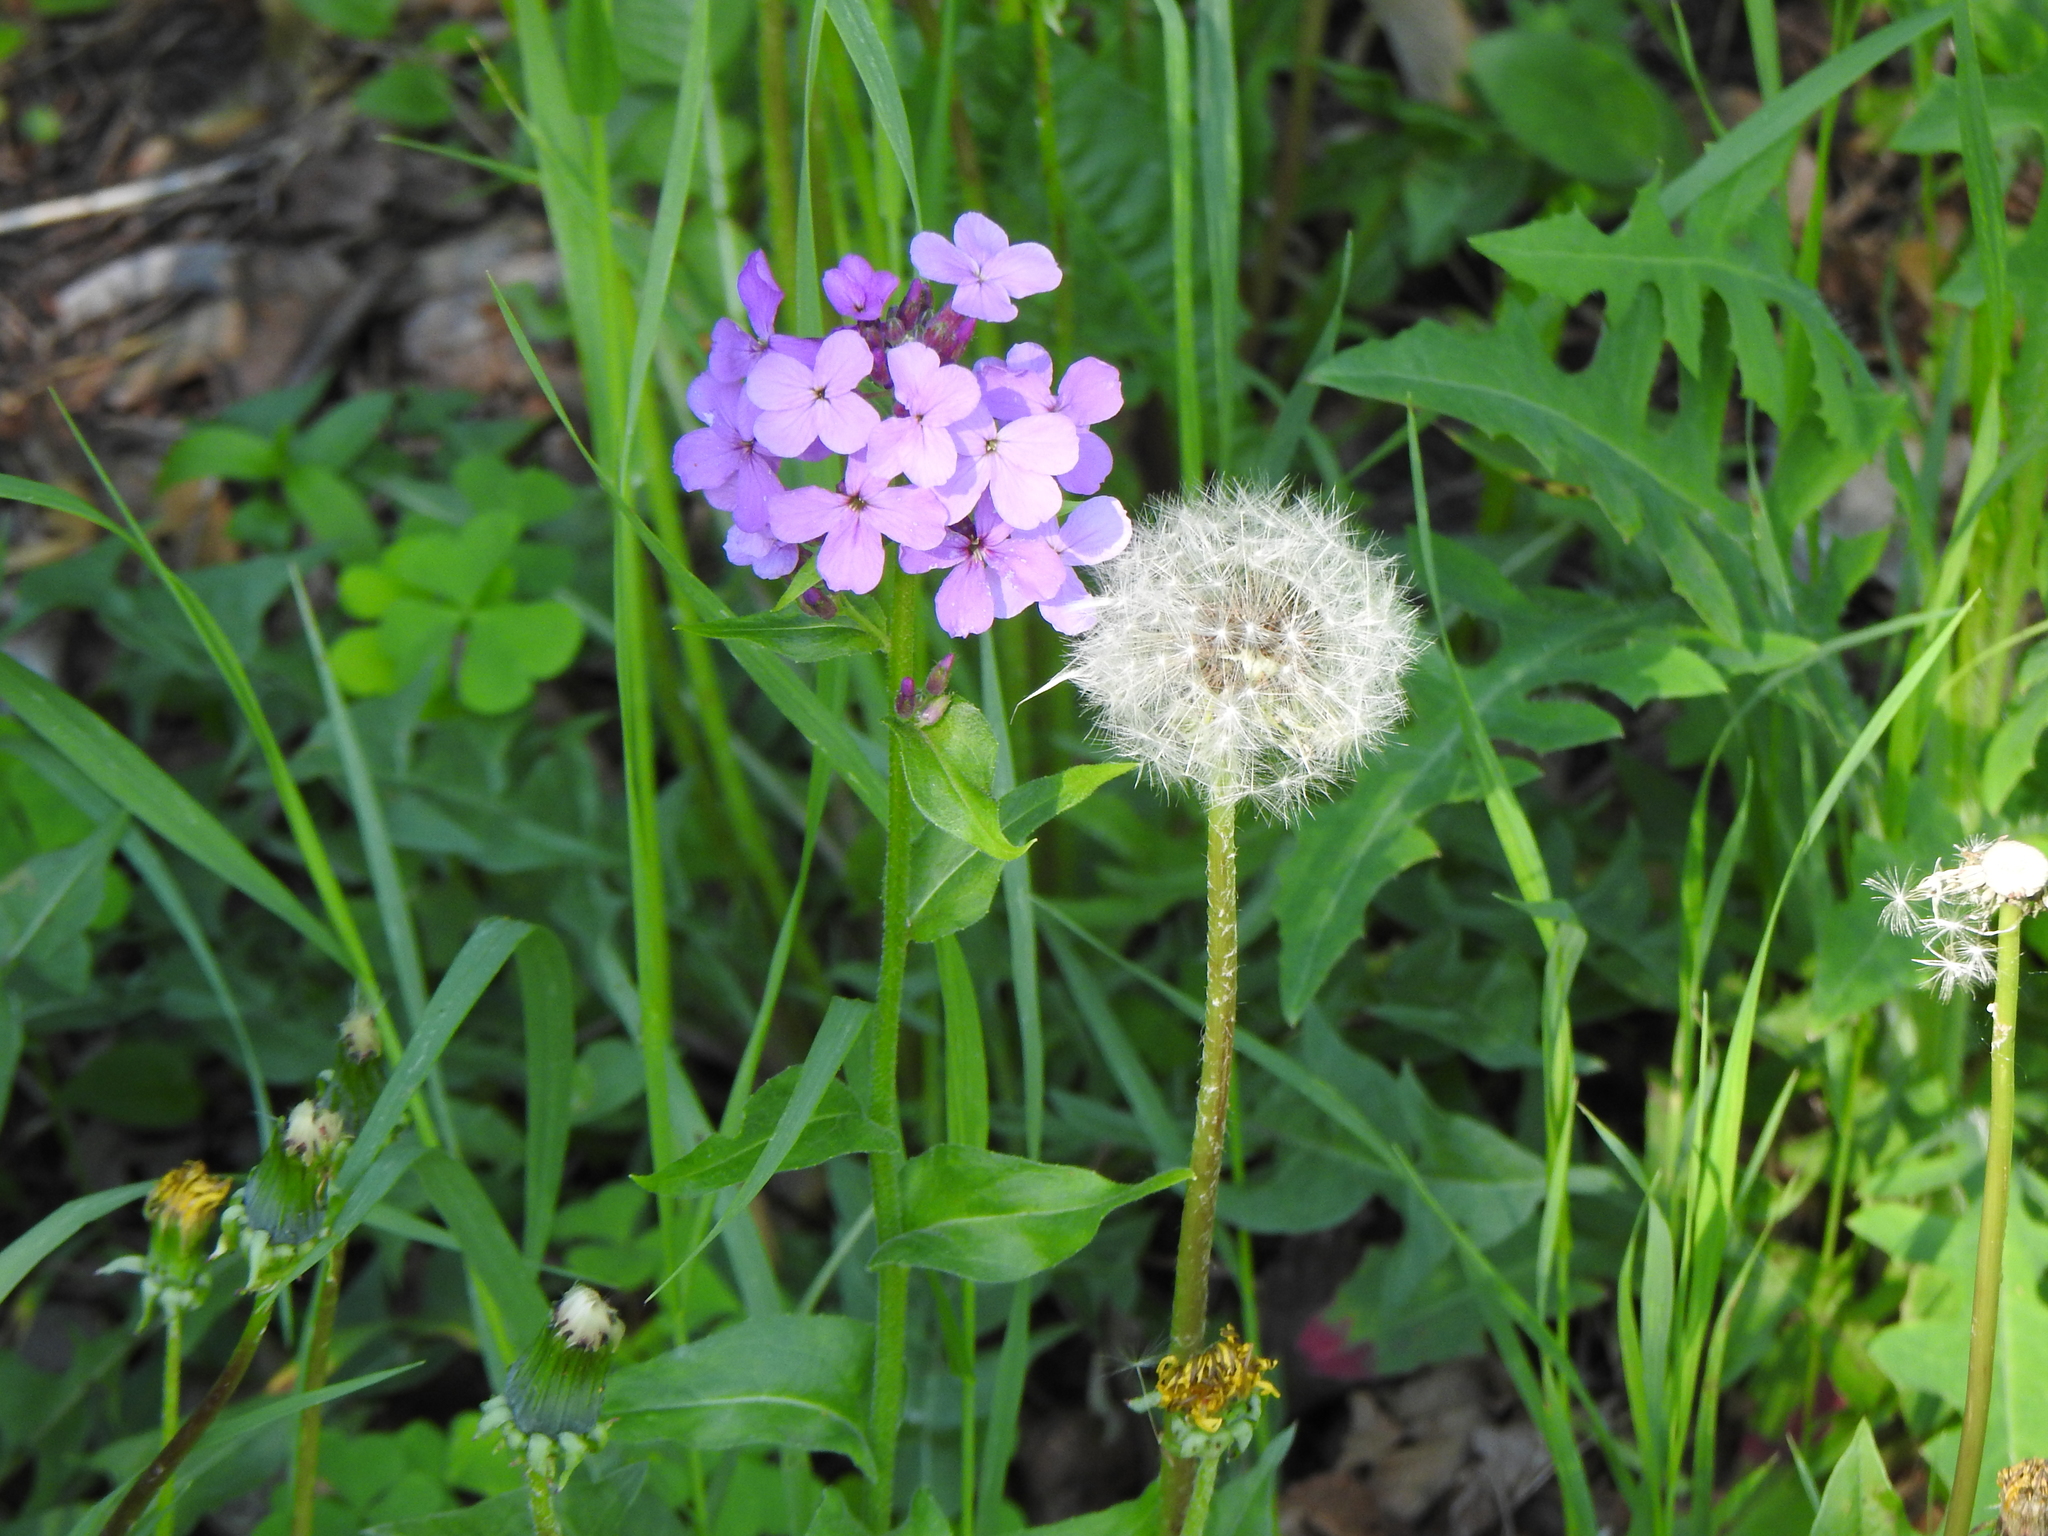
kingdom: Plantae
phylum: Tracheophyta
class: Magnoliopsida
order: Brassicales
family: Brassicaceae
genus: Hesperis
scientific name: Hesperis matronalis
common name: Dame's-violet
